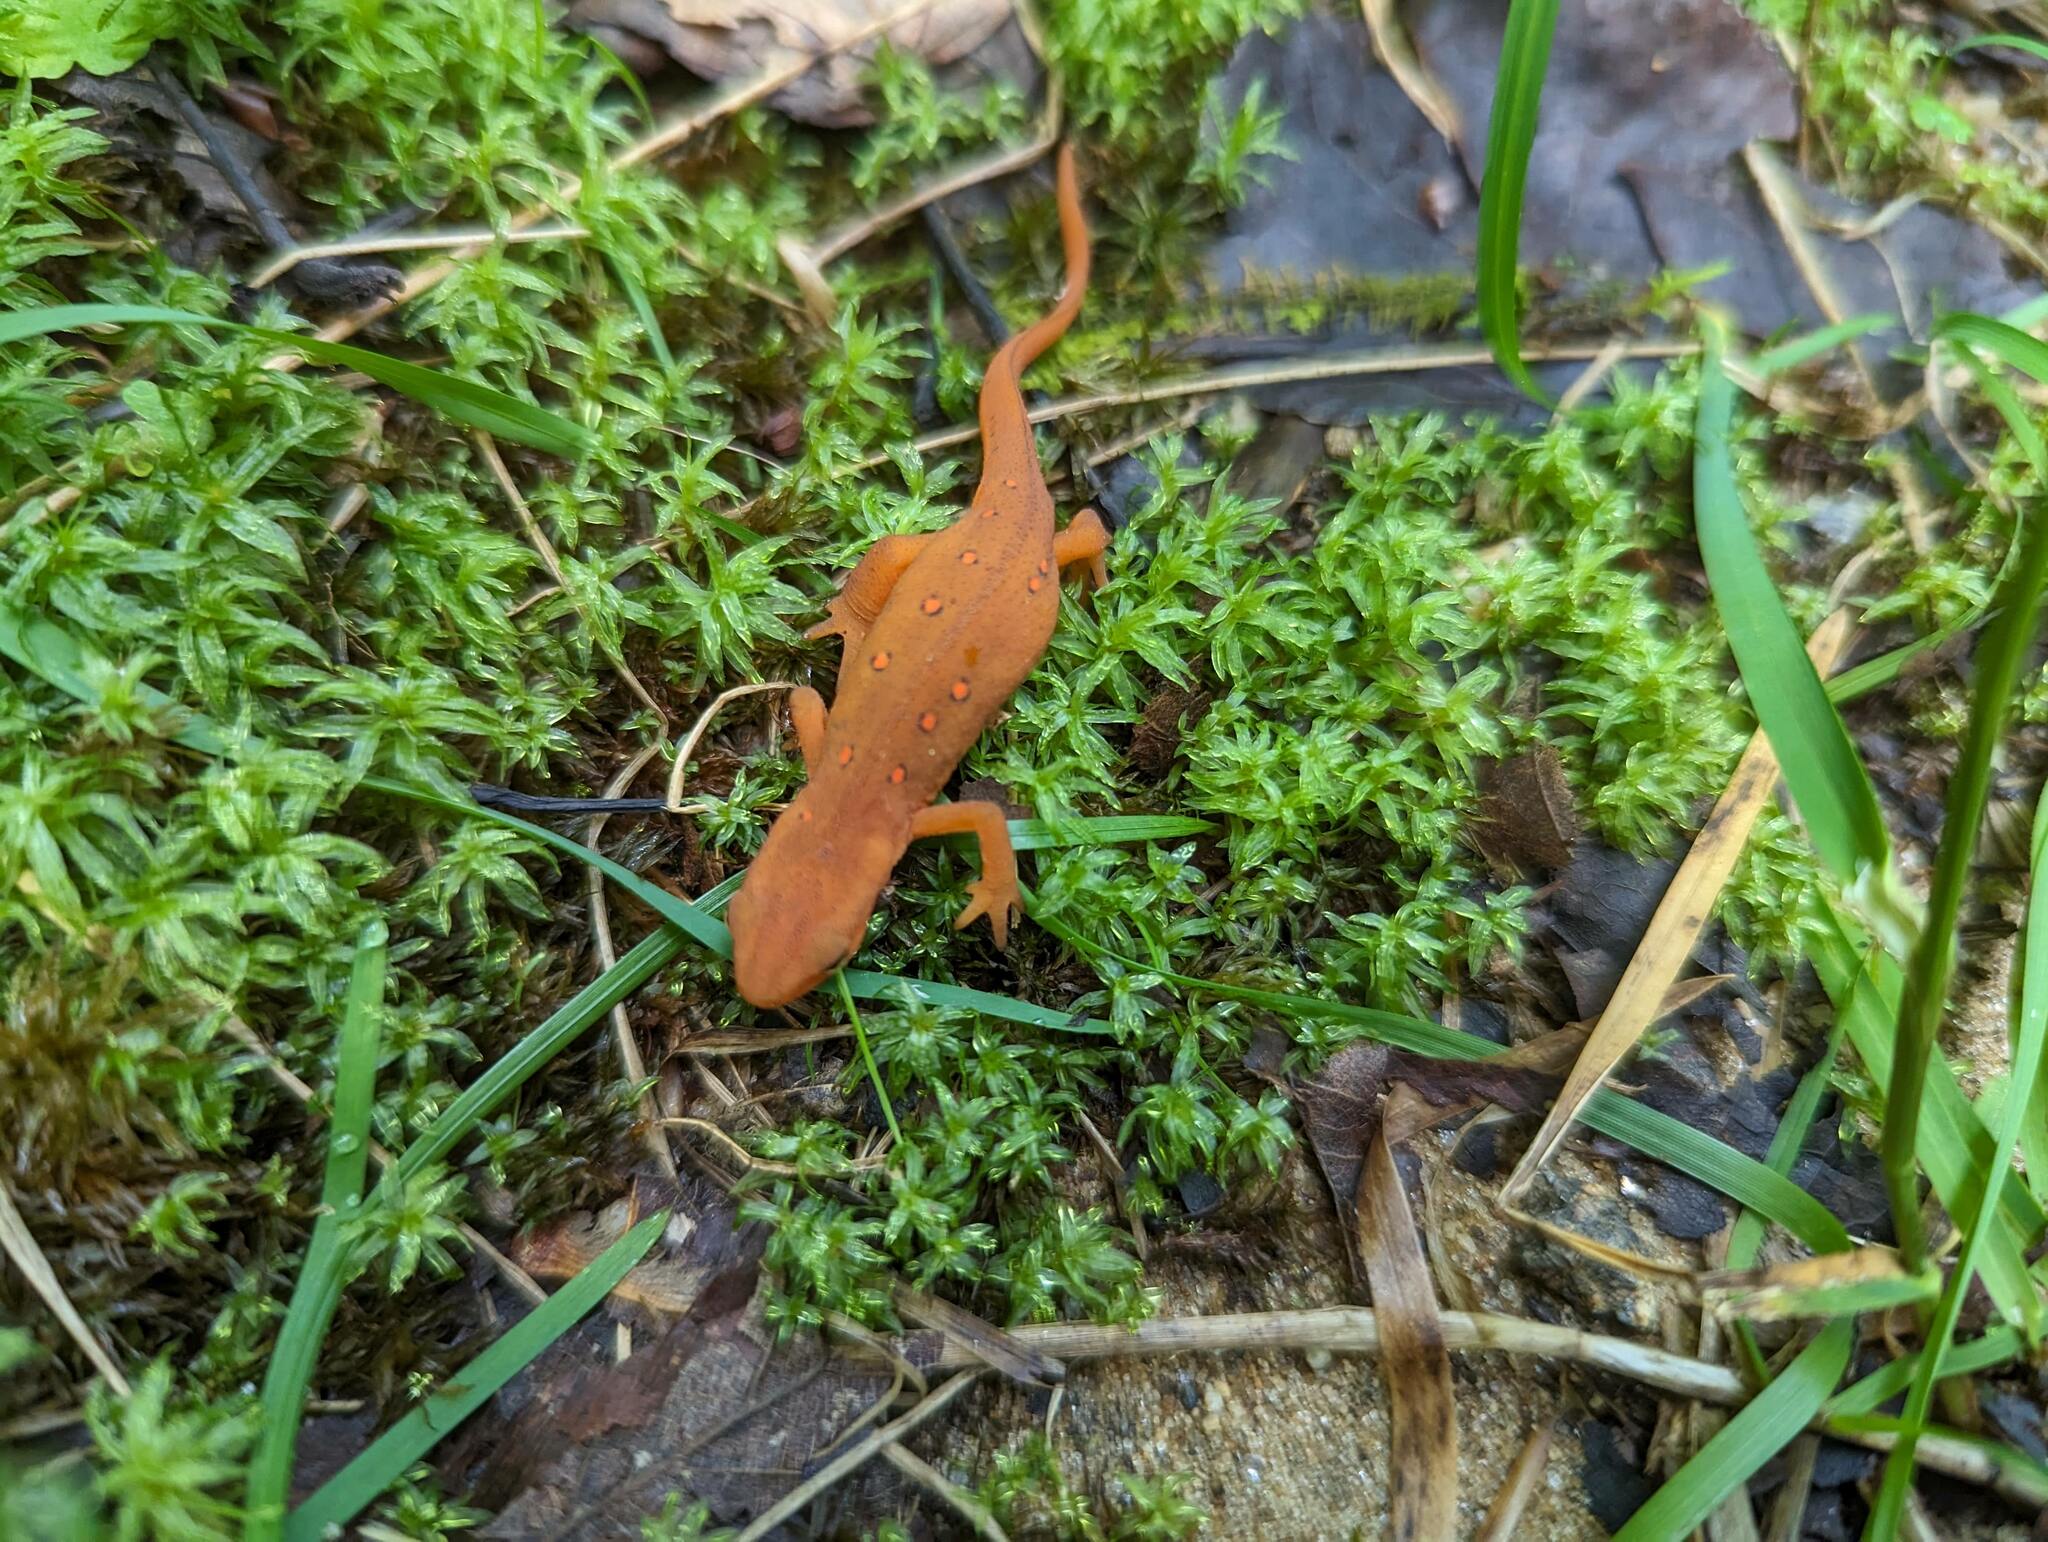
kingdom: Animalia
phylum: Chordata
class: Amphibia
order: Caudata
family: Salamandridae
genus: Notophthalmus
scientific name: Notophthalmus viridescens
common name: Eastern newt
